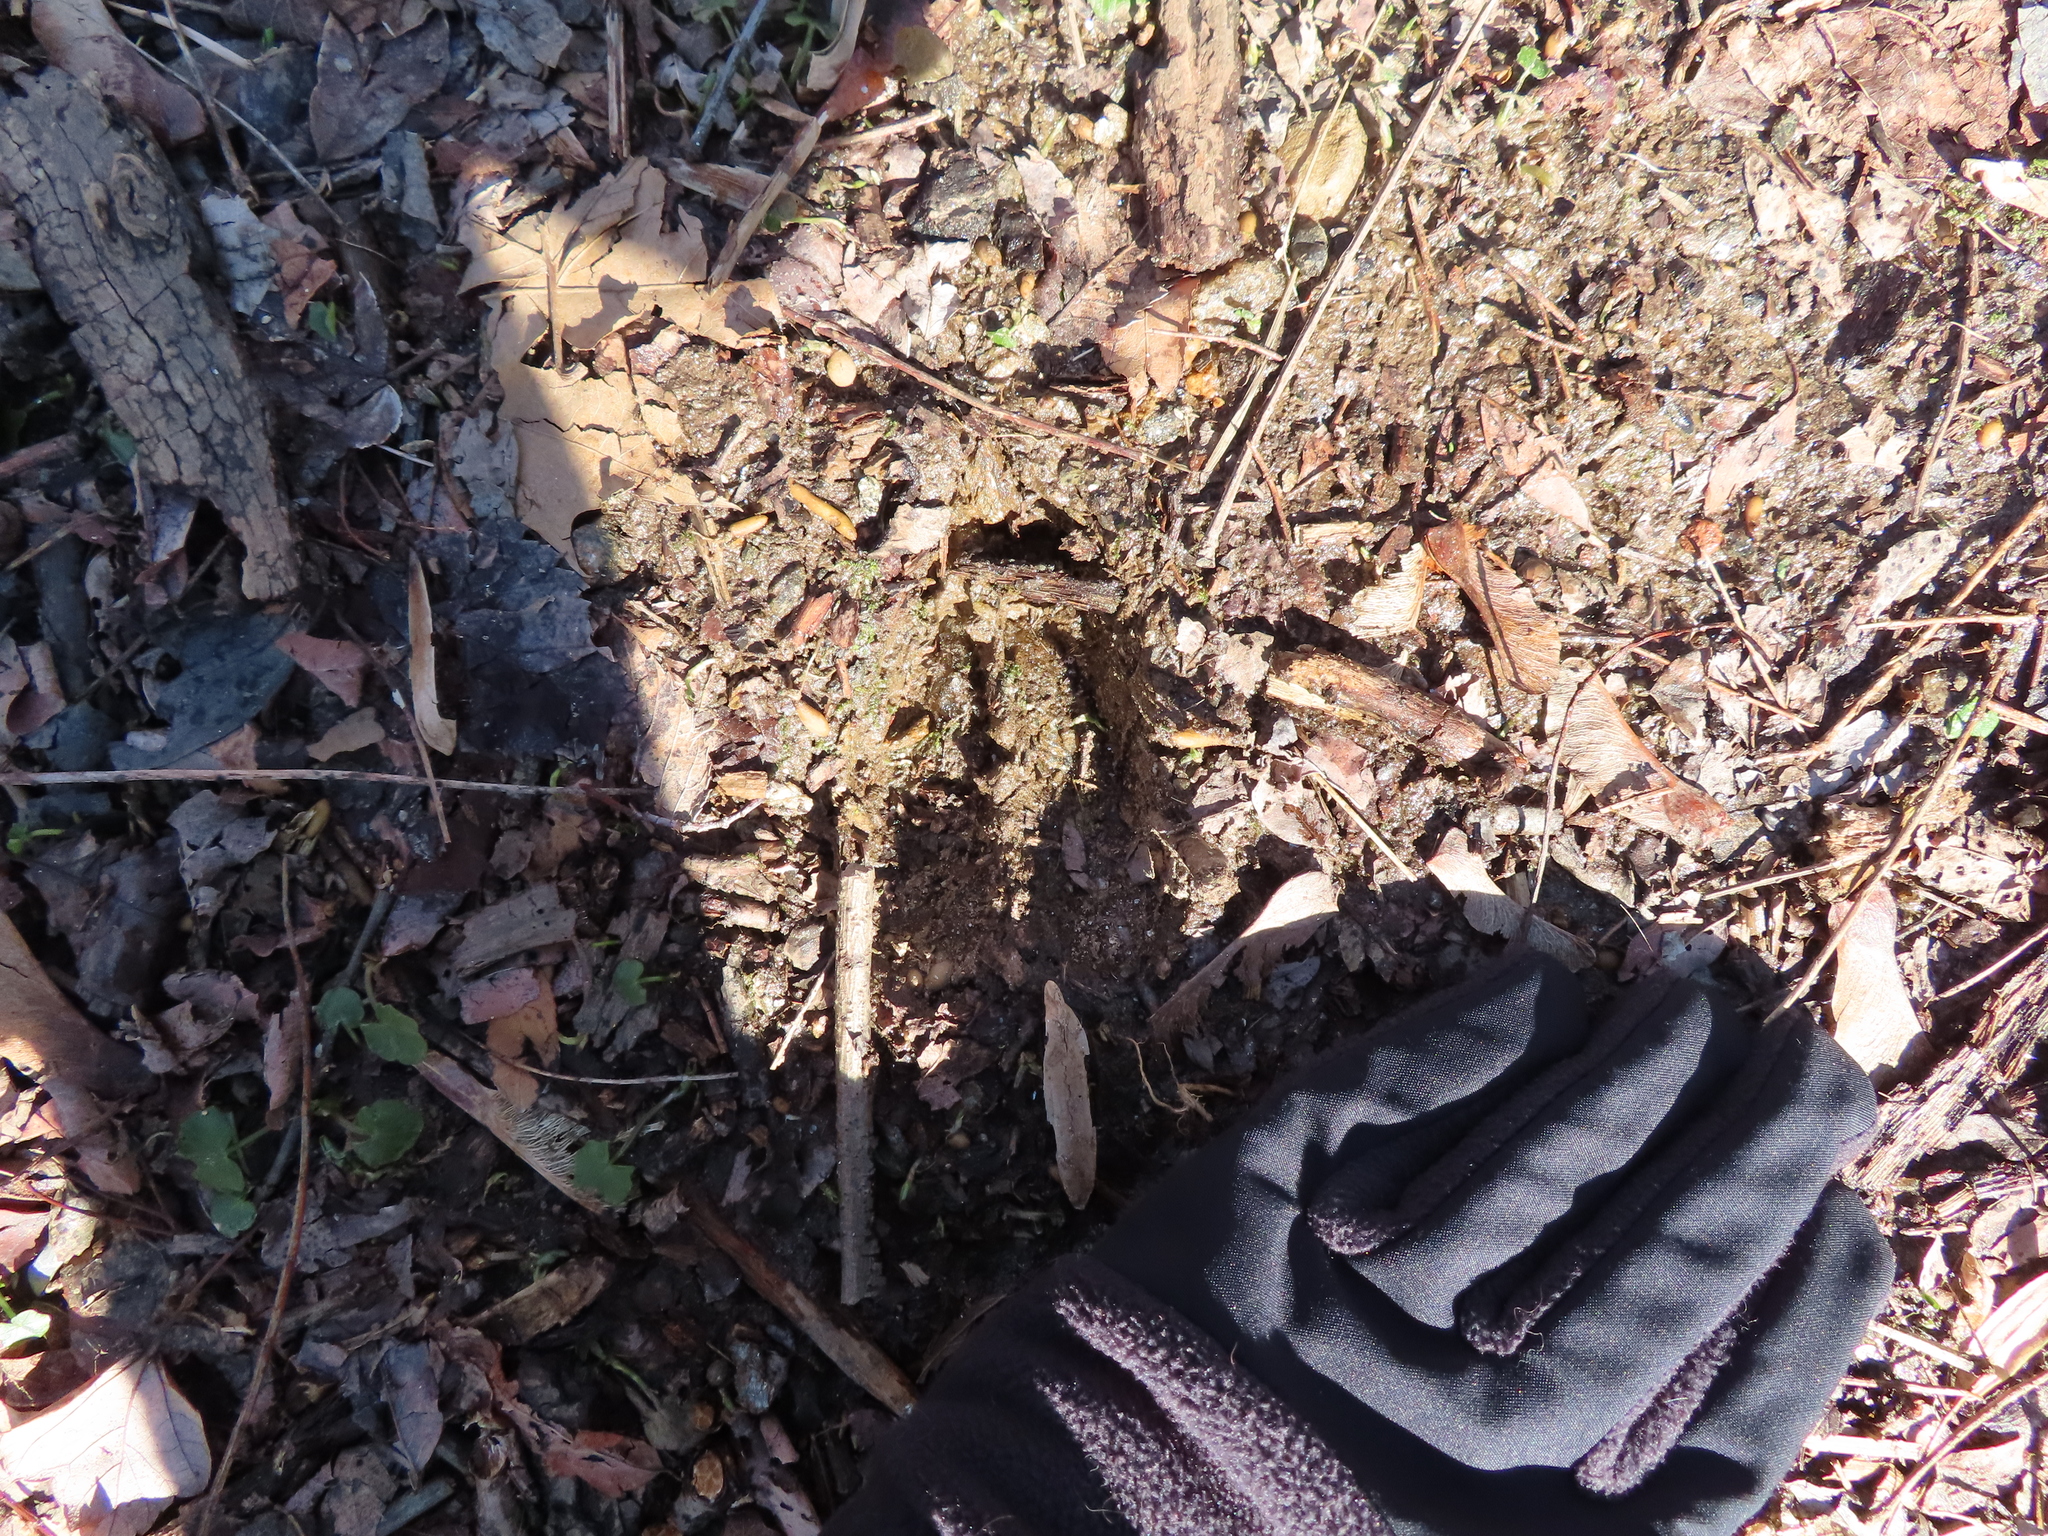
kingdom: Animalia
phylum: Chordata
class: Mammalia
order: Artiodactyla
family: Cervidae
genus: Odocoileus
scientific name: Odocoileus virginianus
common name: White-tailed deer
